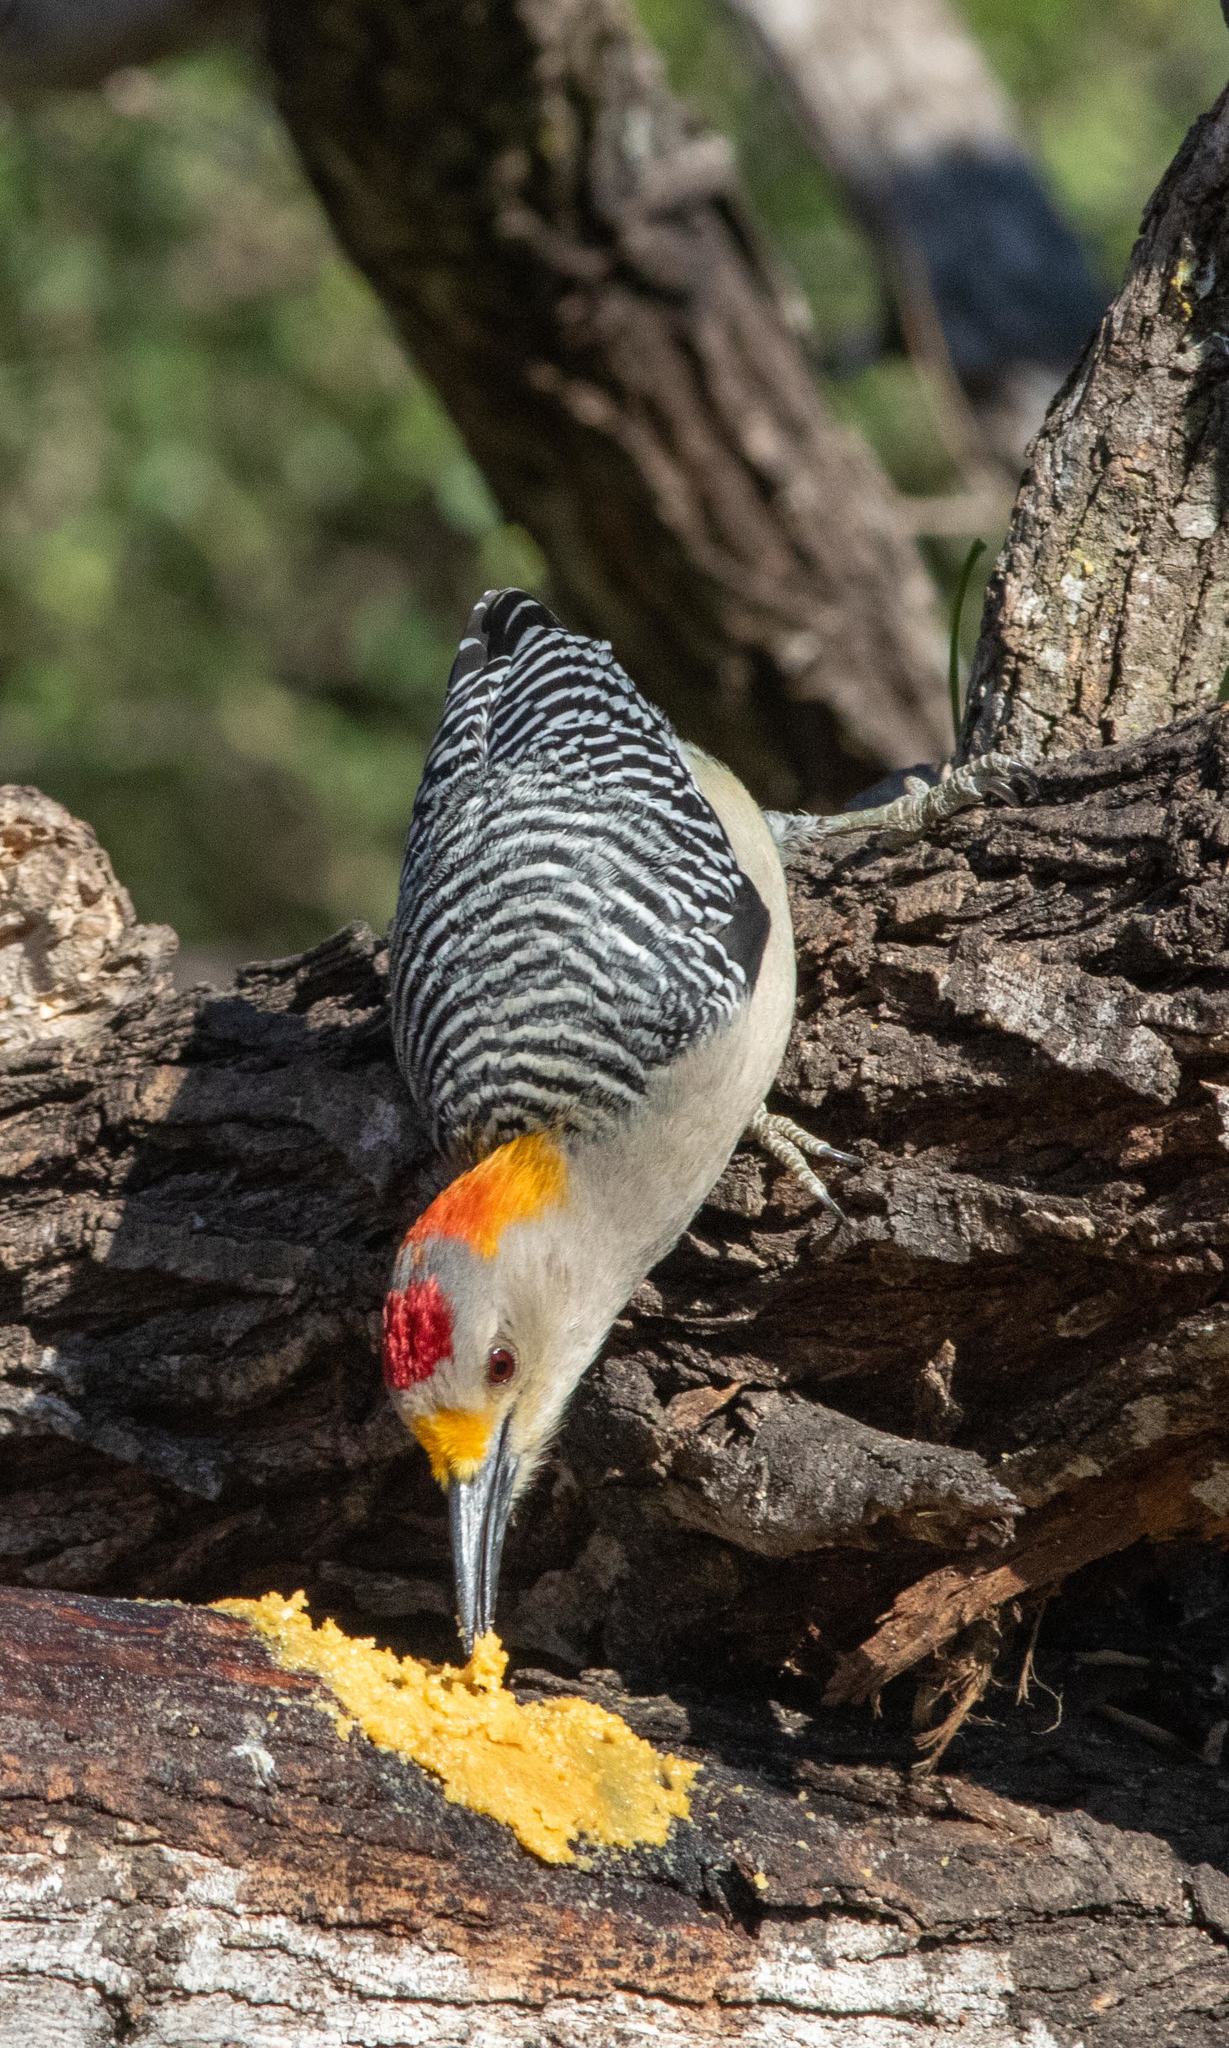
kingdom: Animalia
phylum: Chordata
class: Aves
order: Piciformes
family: Picidae
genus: Melanerpes
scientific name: Melanerpes aurifrons
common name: Golden-fronted woodpecker
